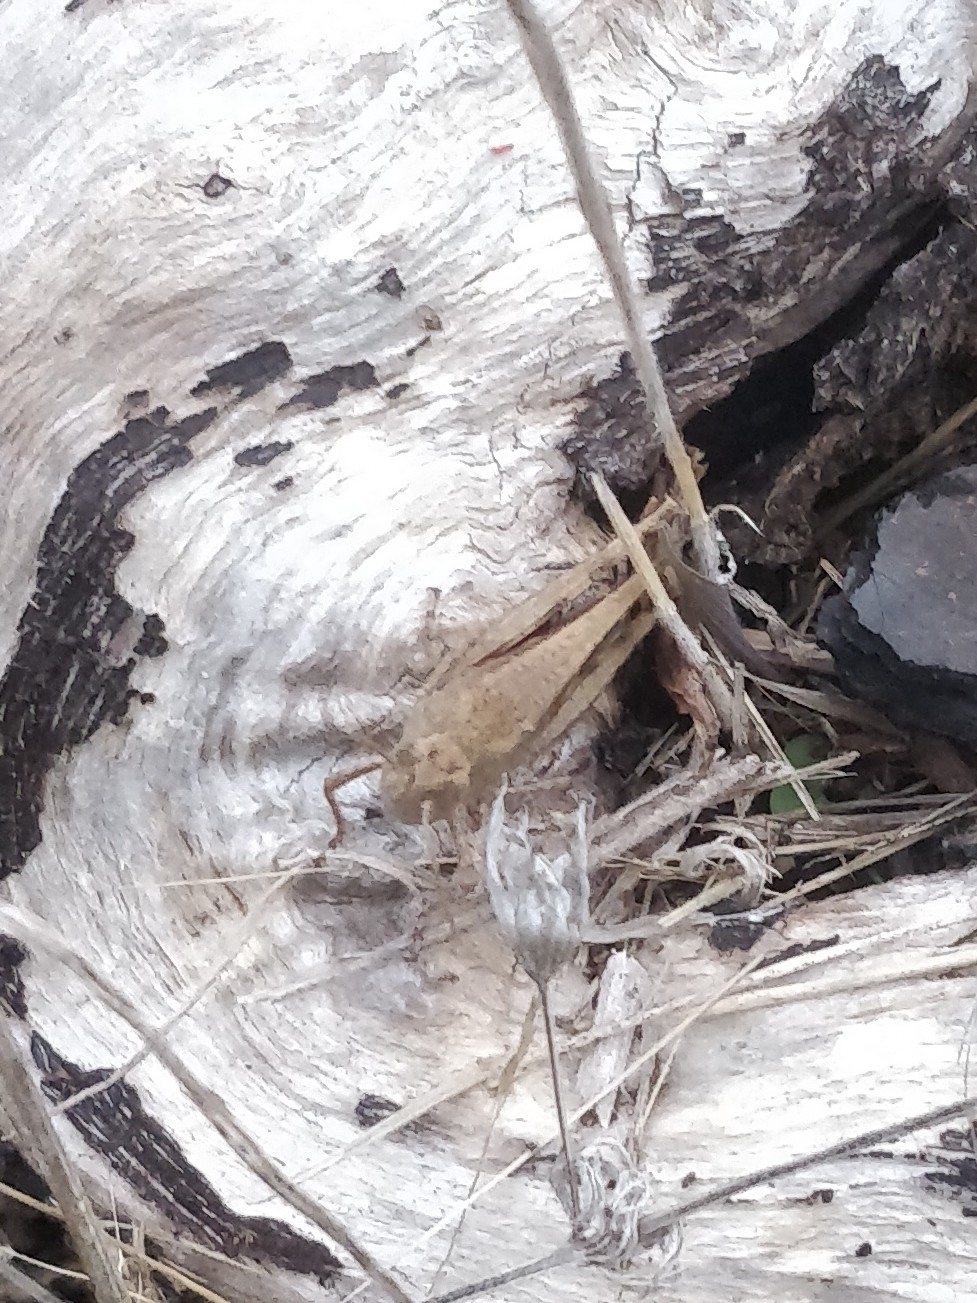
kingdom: Animalia
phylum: Arthropoda
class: Insecta
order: Orthoptera
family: Acrididae
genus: Aiolopus
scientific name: Aiolopus strepens
